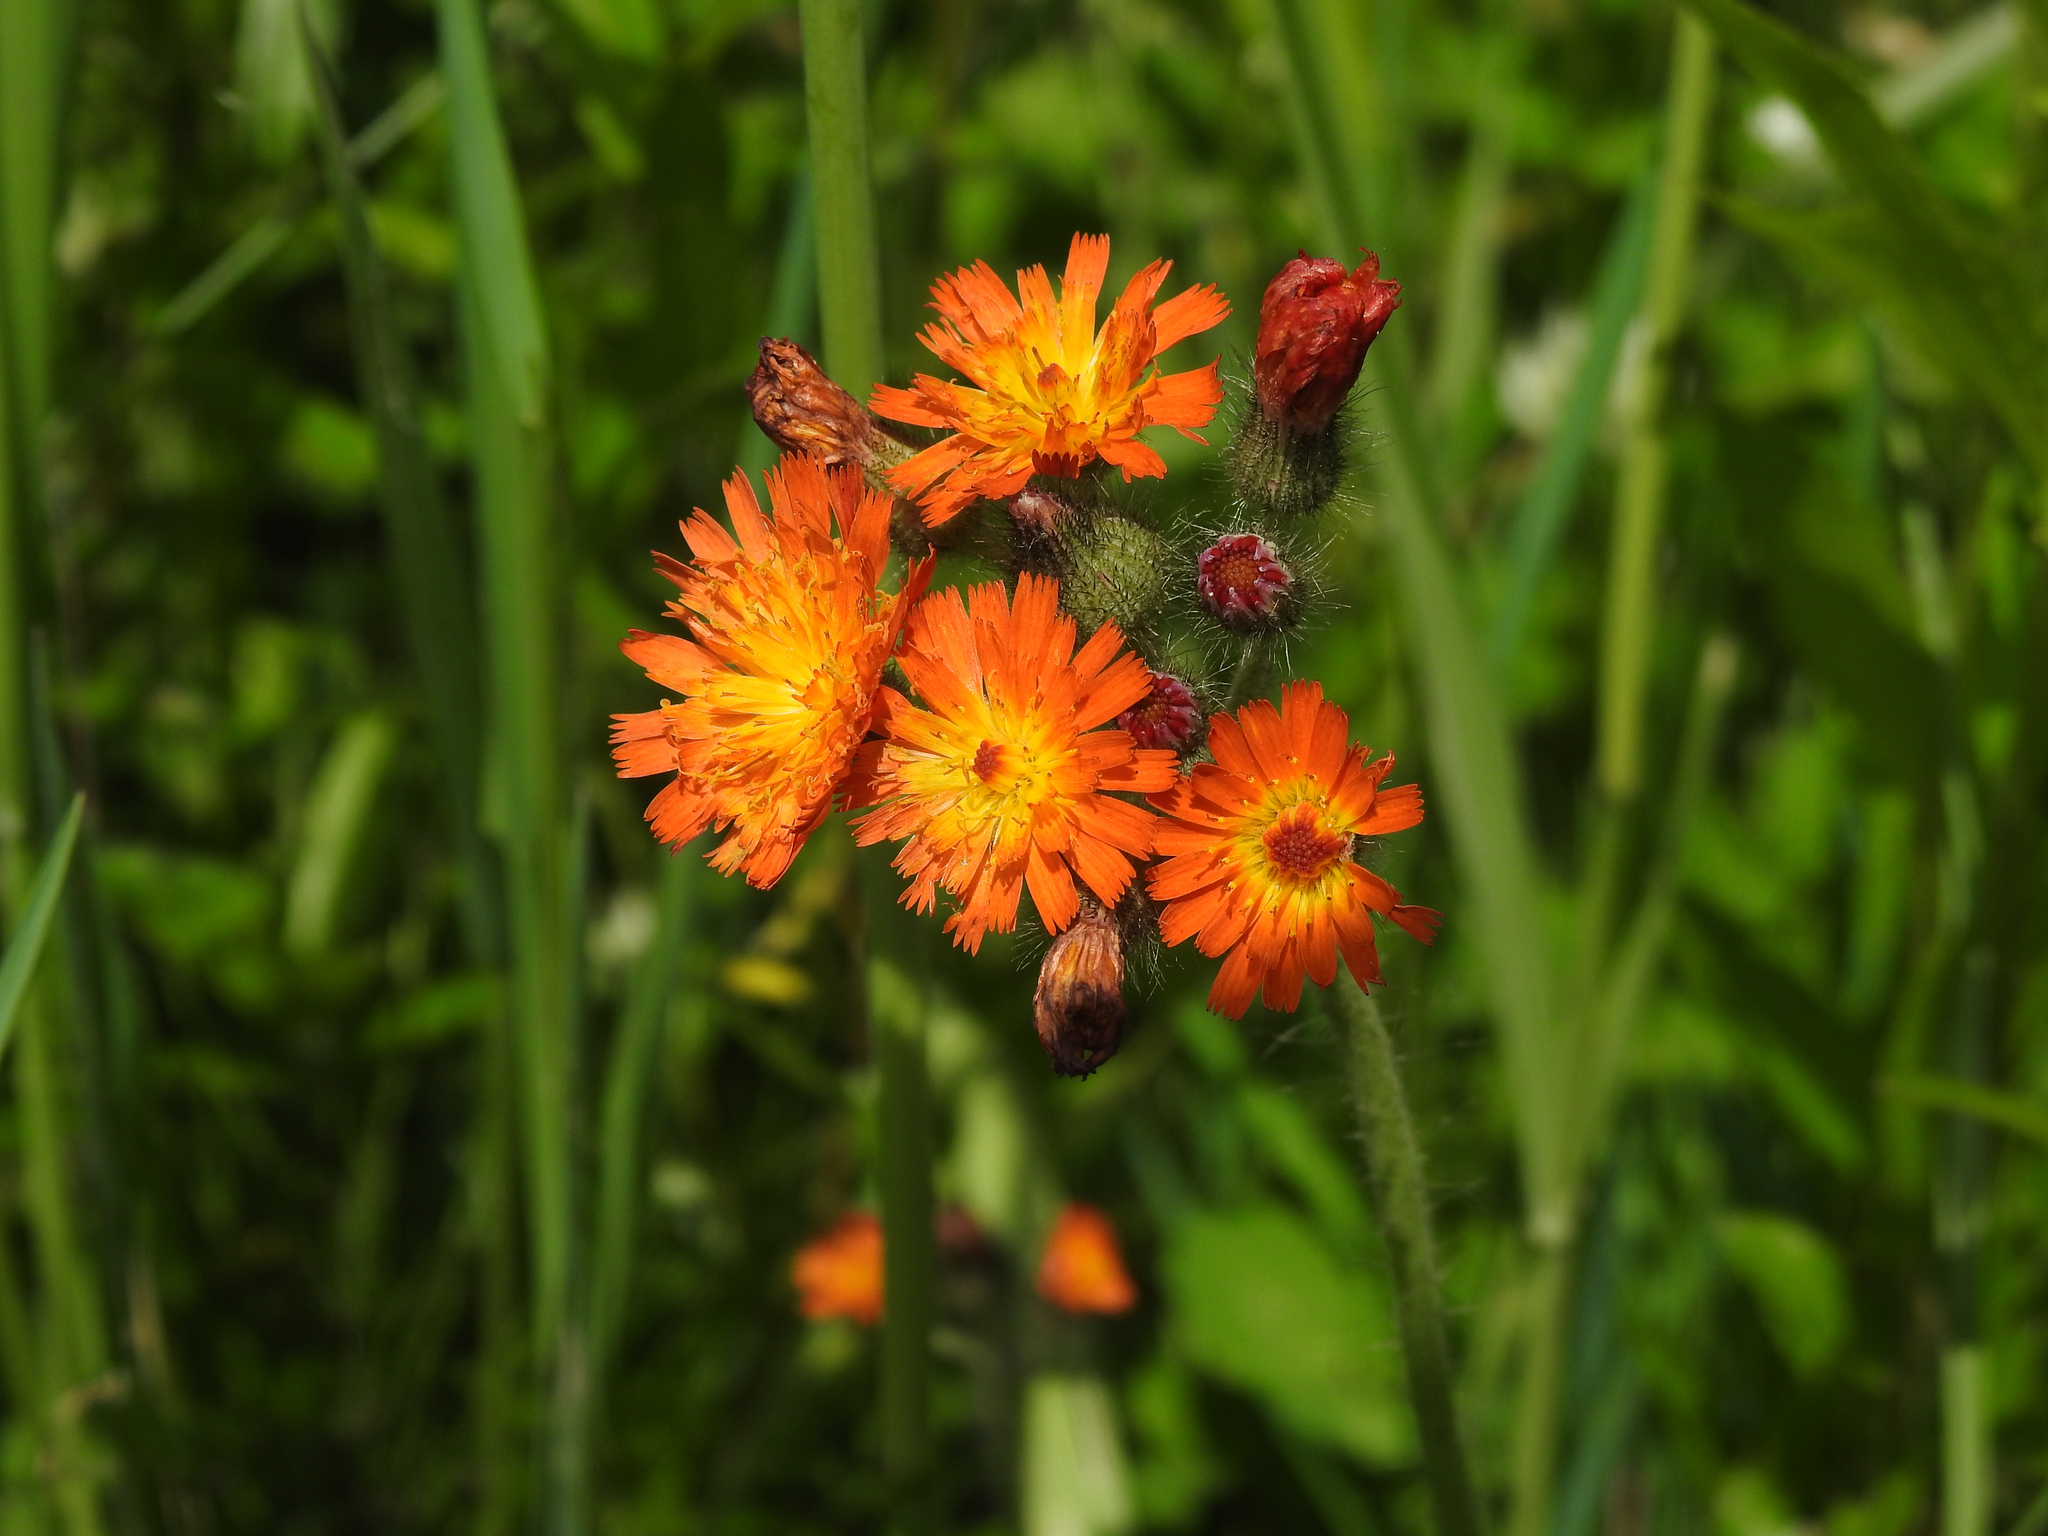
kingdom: Plantae
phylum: Tracheophyta
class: Magnoliopsida
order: Asterales
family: Asteraceae
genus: Pilosella
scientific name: Pilosella aurantiaca
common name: Fox-and-cubs
